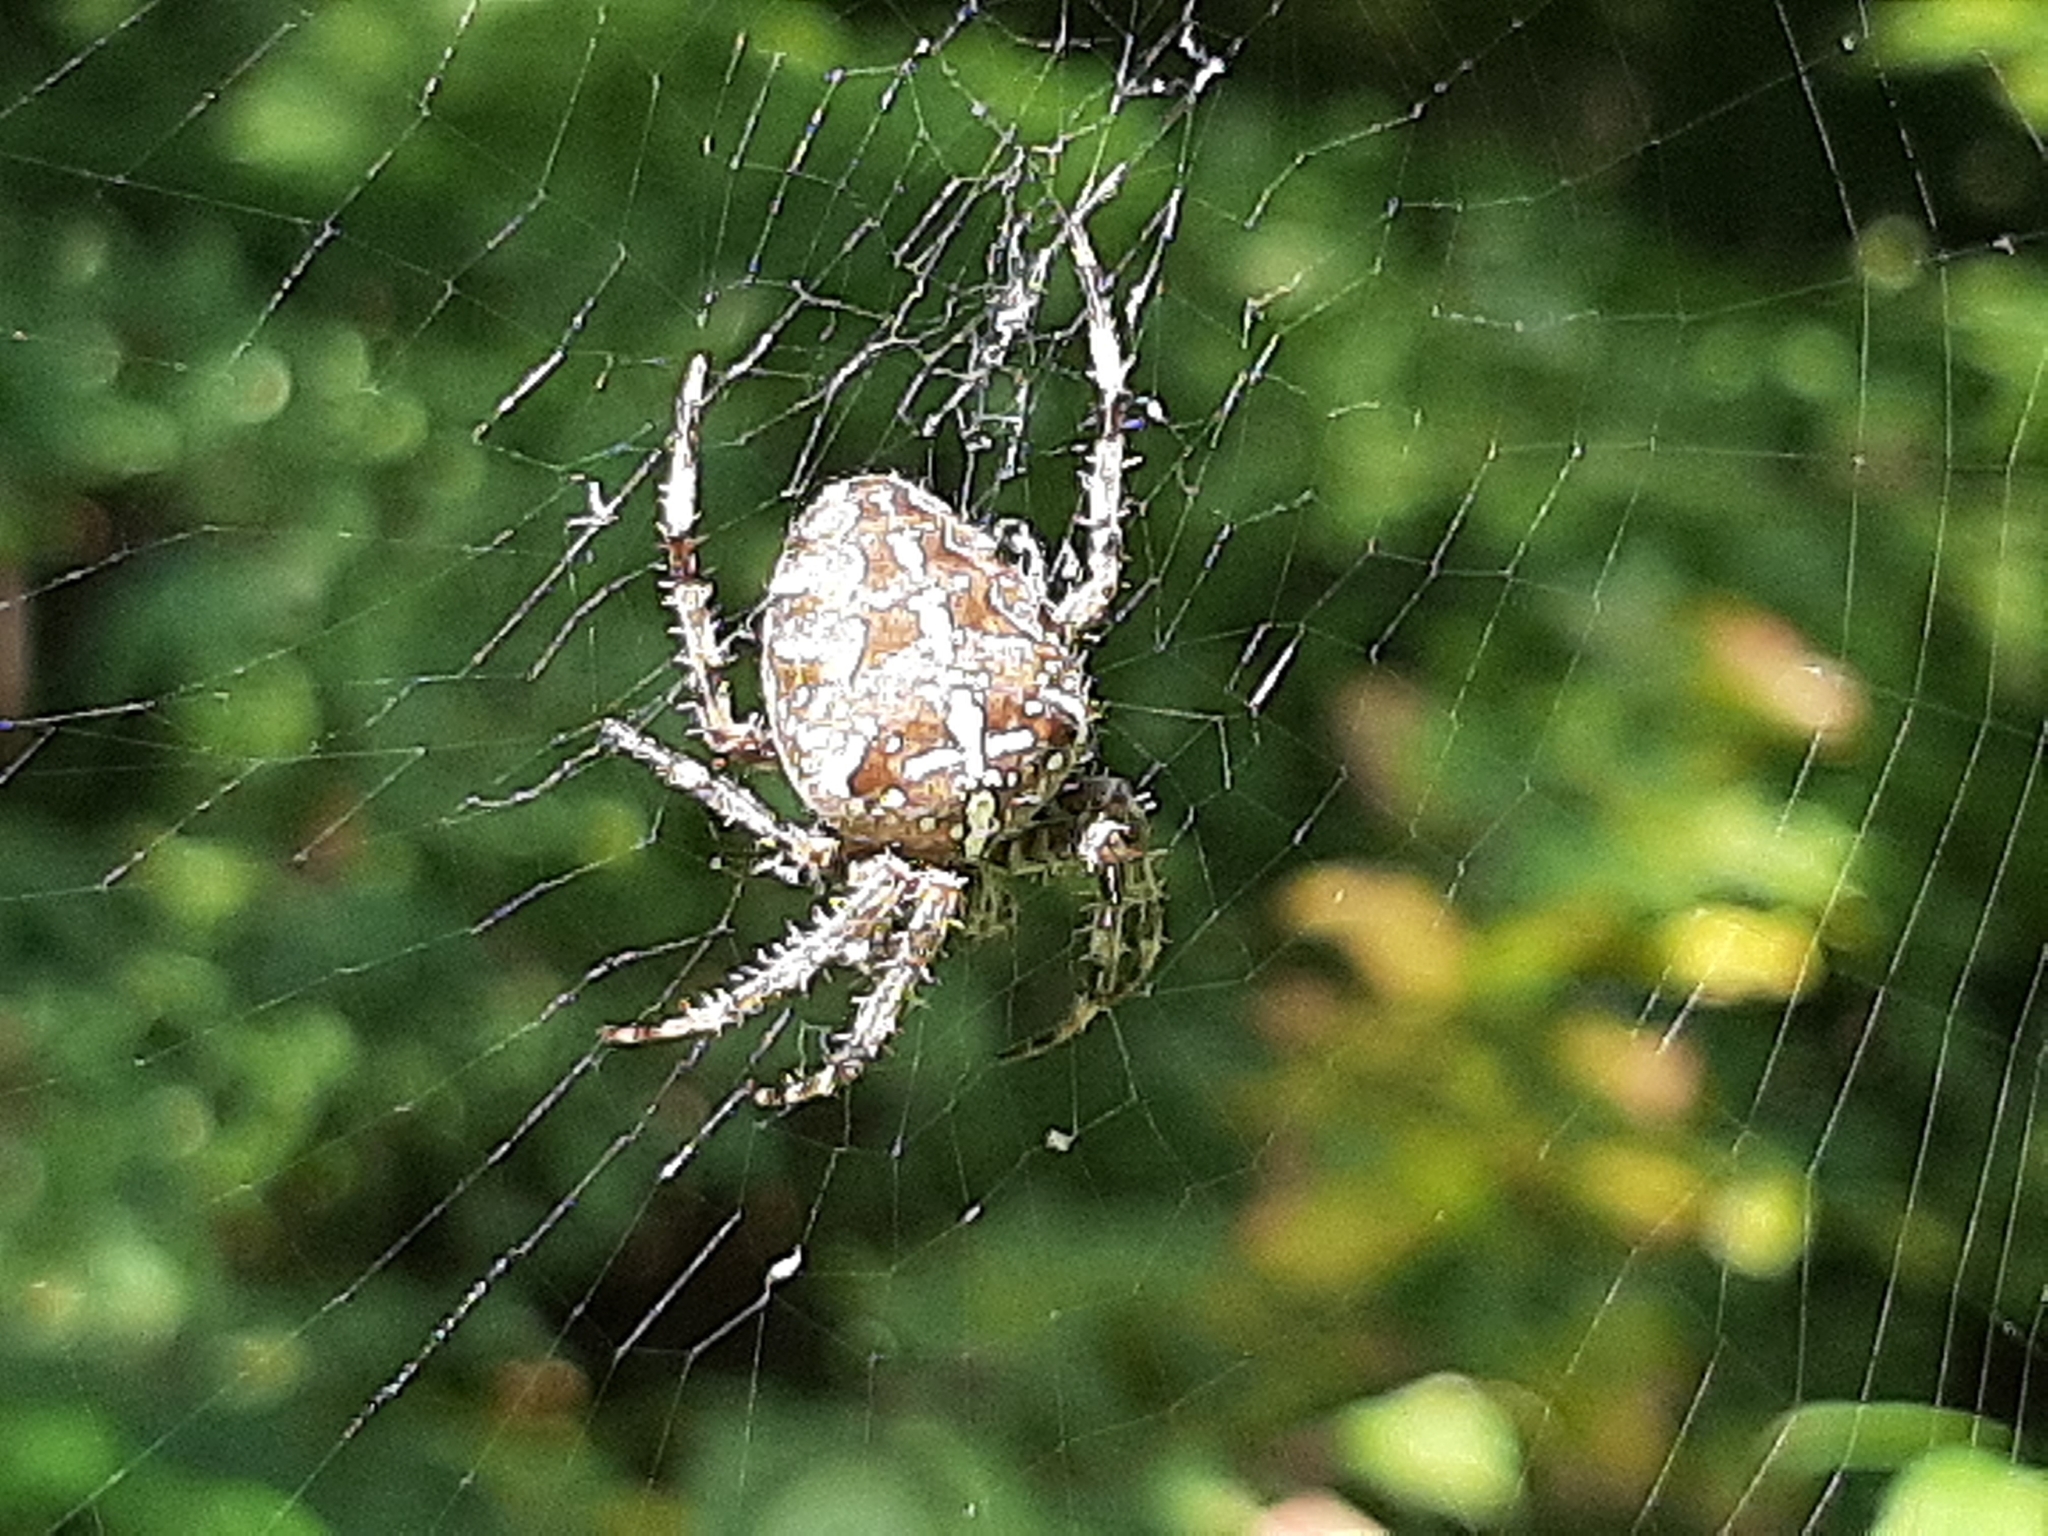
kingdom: Animalia
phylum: Arthropoda
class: Arachnida
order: Araneae
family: Araneidae
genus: Araneus
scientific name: Araneus diadematus
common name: Cross orbweaver
